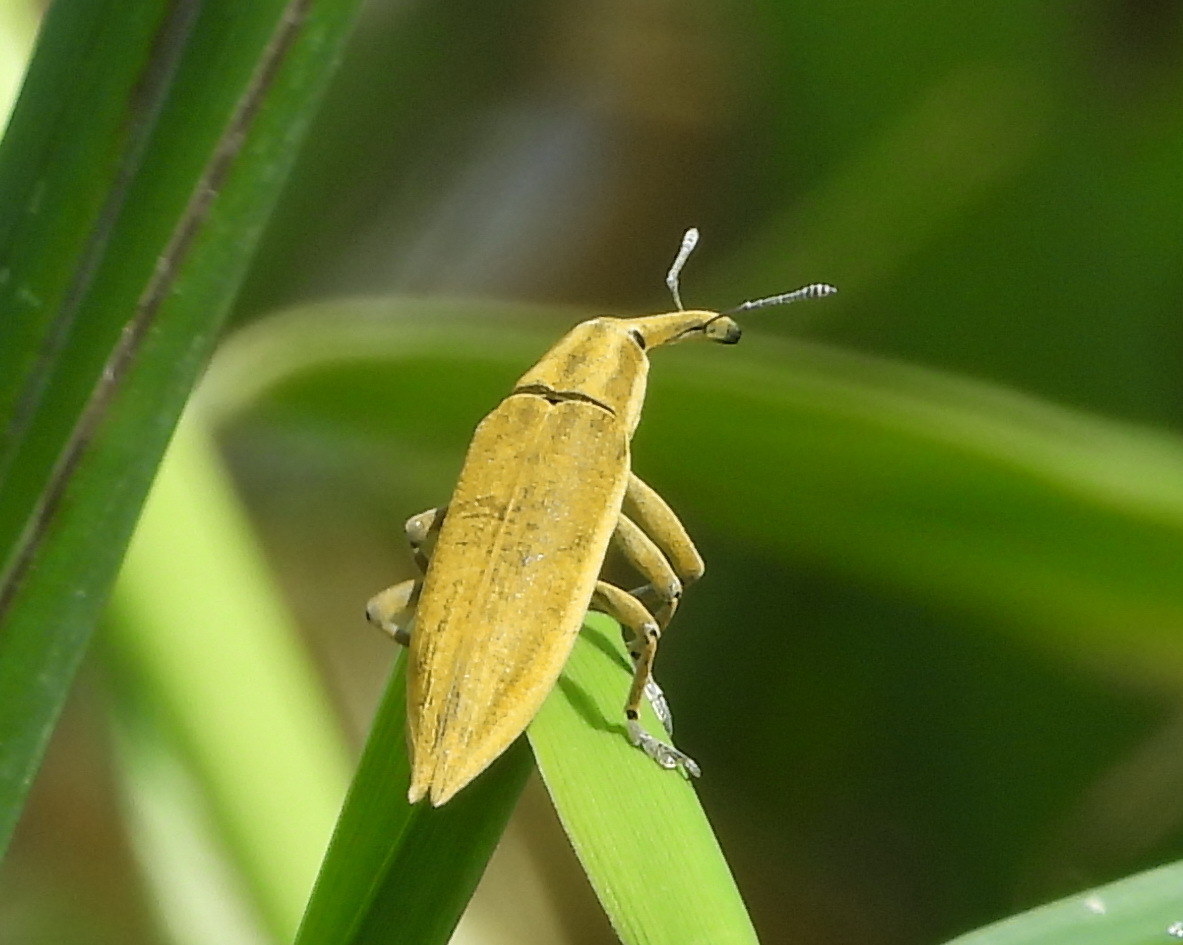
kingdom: Animalia
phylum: Arthropoda
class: Insecta
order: Coleoptera
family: Curculionidae
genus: Lixus
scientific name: Lixus iridis
